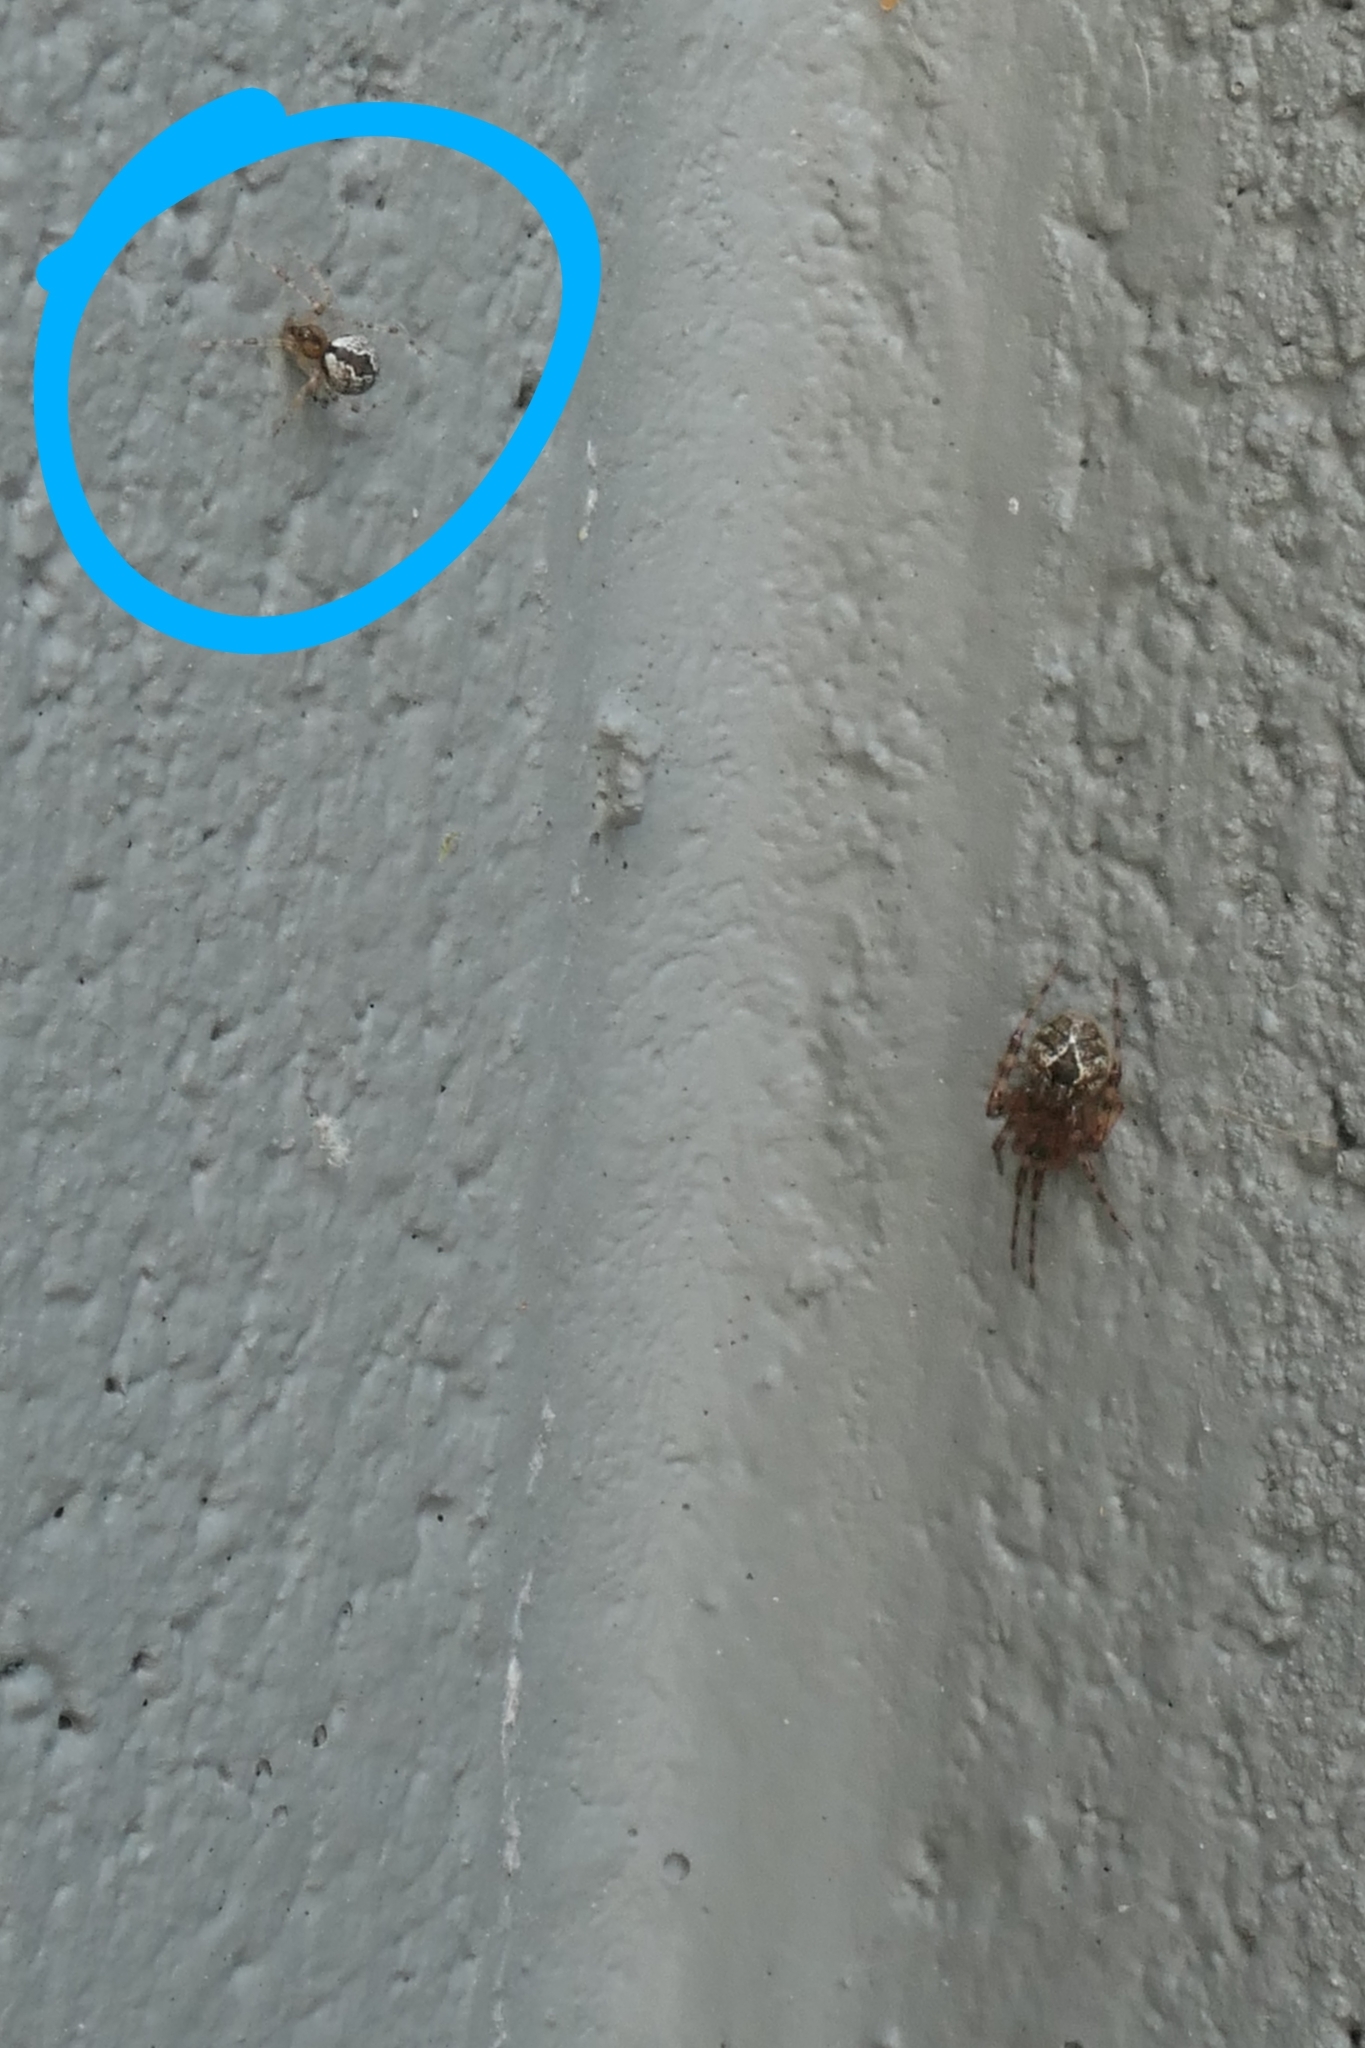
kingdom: Animalia
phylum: Arthropoda
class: Arachnida
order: Araneae
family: Theridiidae
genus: Cryptachaea
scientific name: Cryptachaea veruculata
